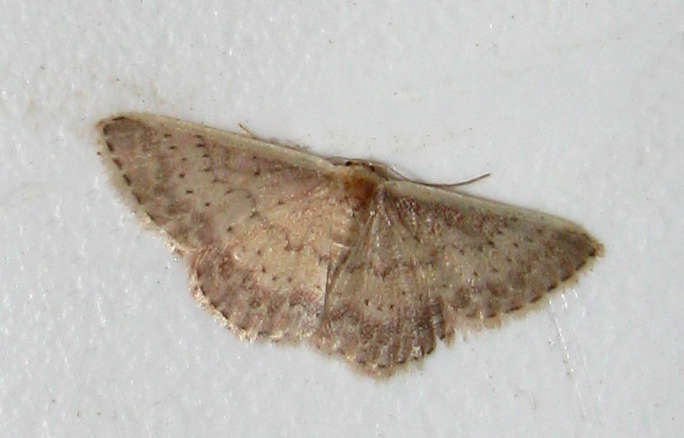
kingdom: Animalia
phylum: Arthropoda
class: Insecta
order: Lepidoptera
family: Geometridae
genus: Idaea
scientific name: Idaea nephelota
